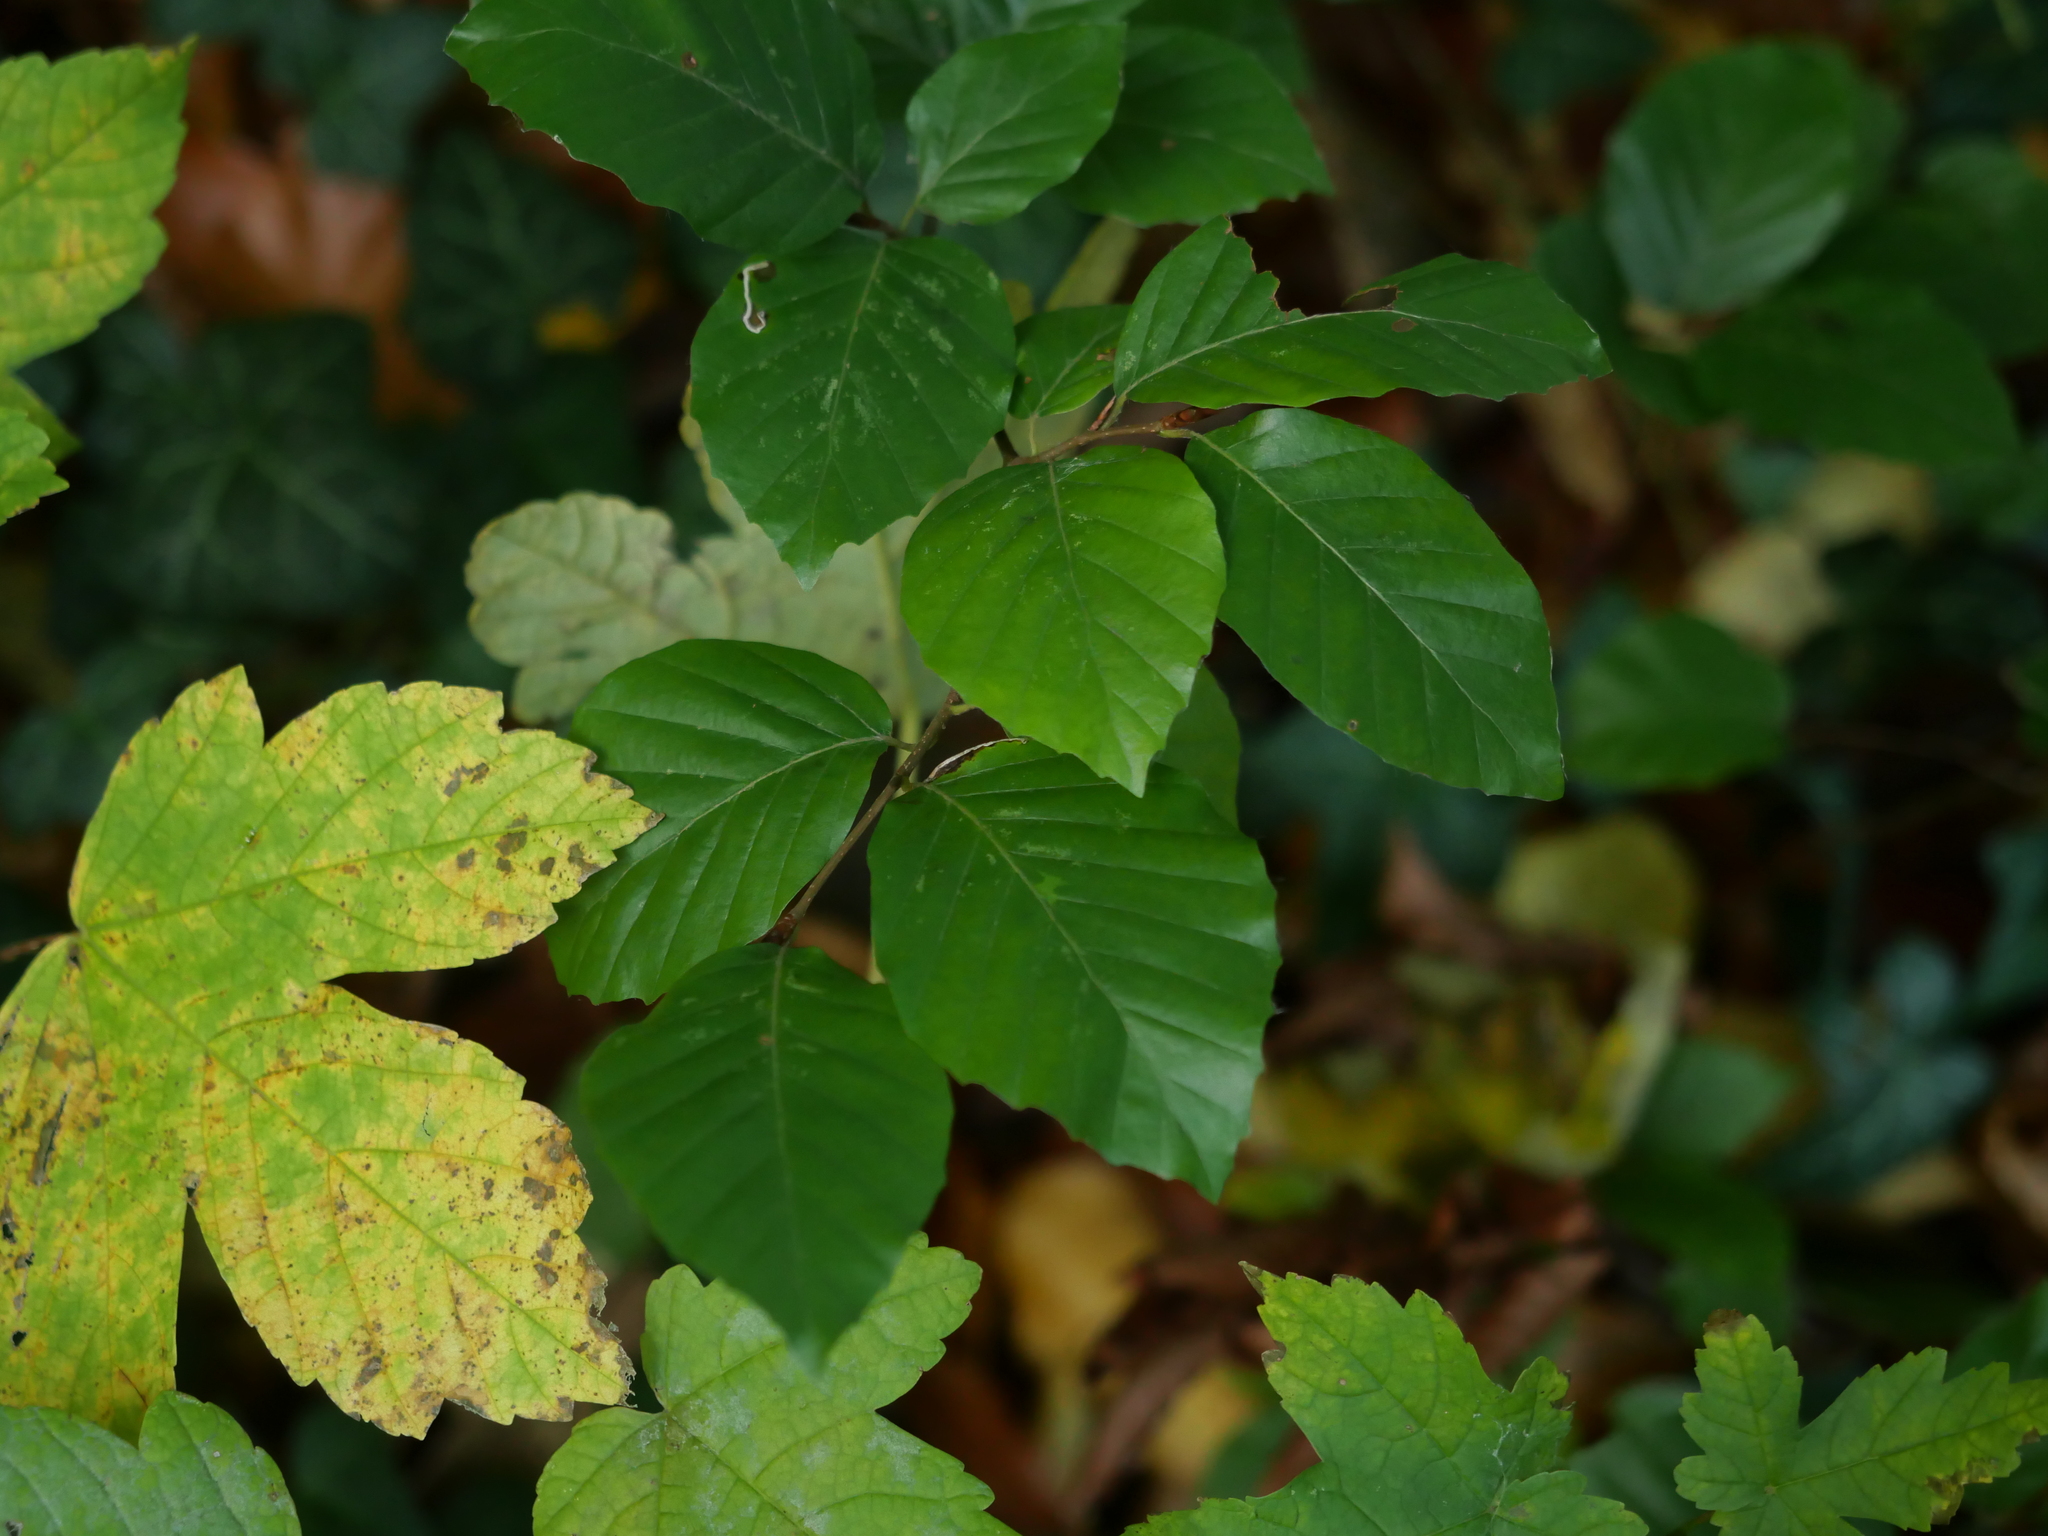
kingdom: Plantae
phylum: Tracheophyta
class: Magnoliopsida
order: Fagales
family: Fagaceae
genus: Fagus
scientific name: Fagus sylvatica
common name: Beech
